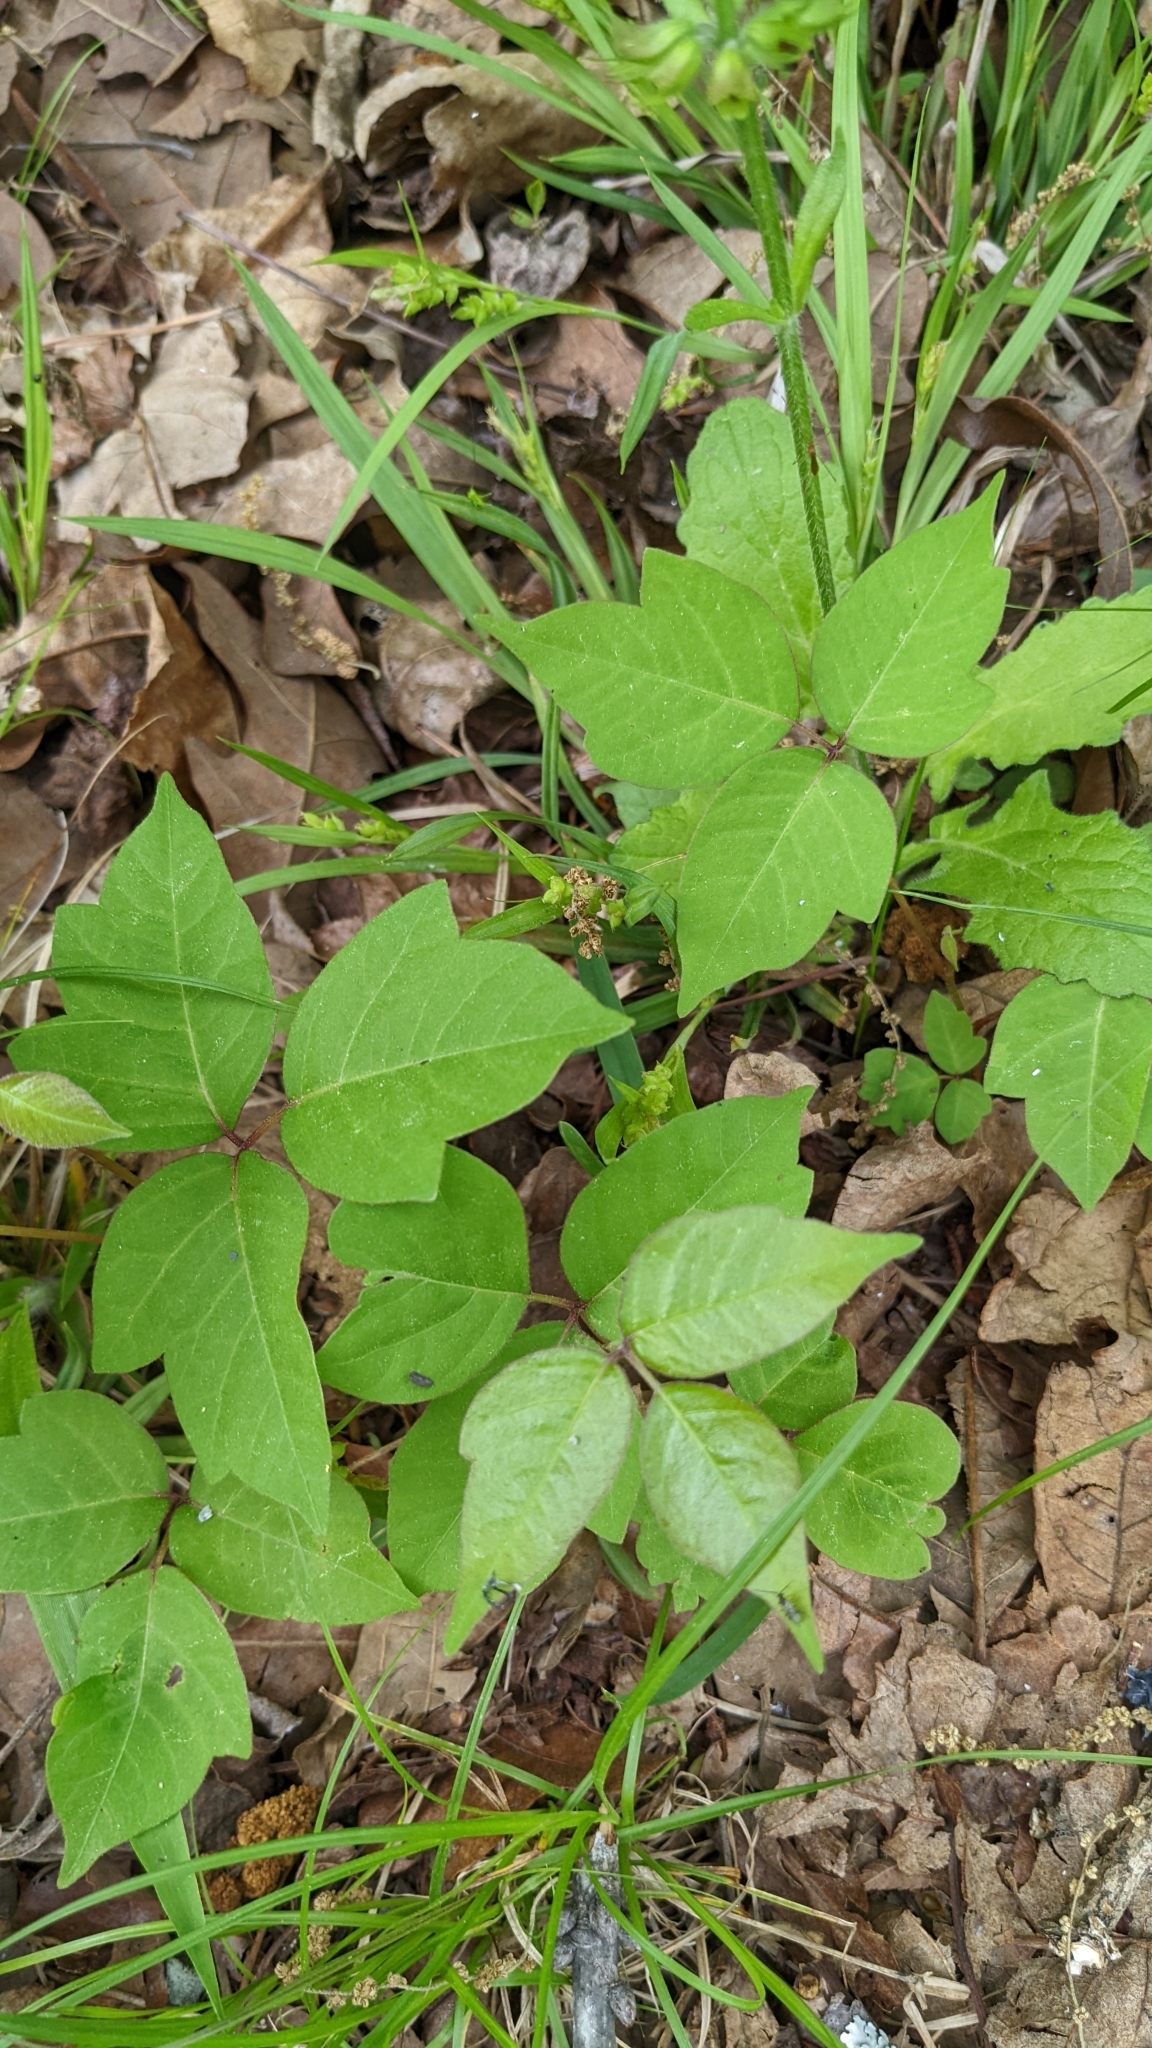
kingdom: Plantae
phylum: Tracheophyta
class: Magnoliopsida
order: Sapindales
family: Anacardiaceae
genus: Toxicodendron
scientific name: Toxicodendron radicans
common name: Poison ivy
